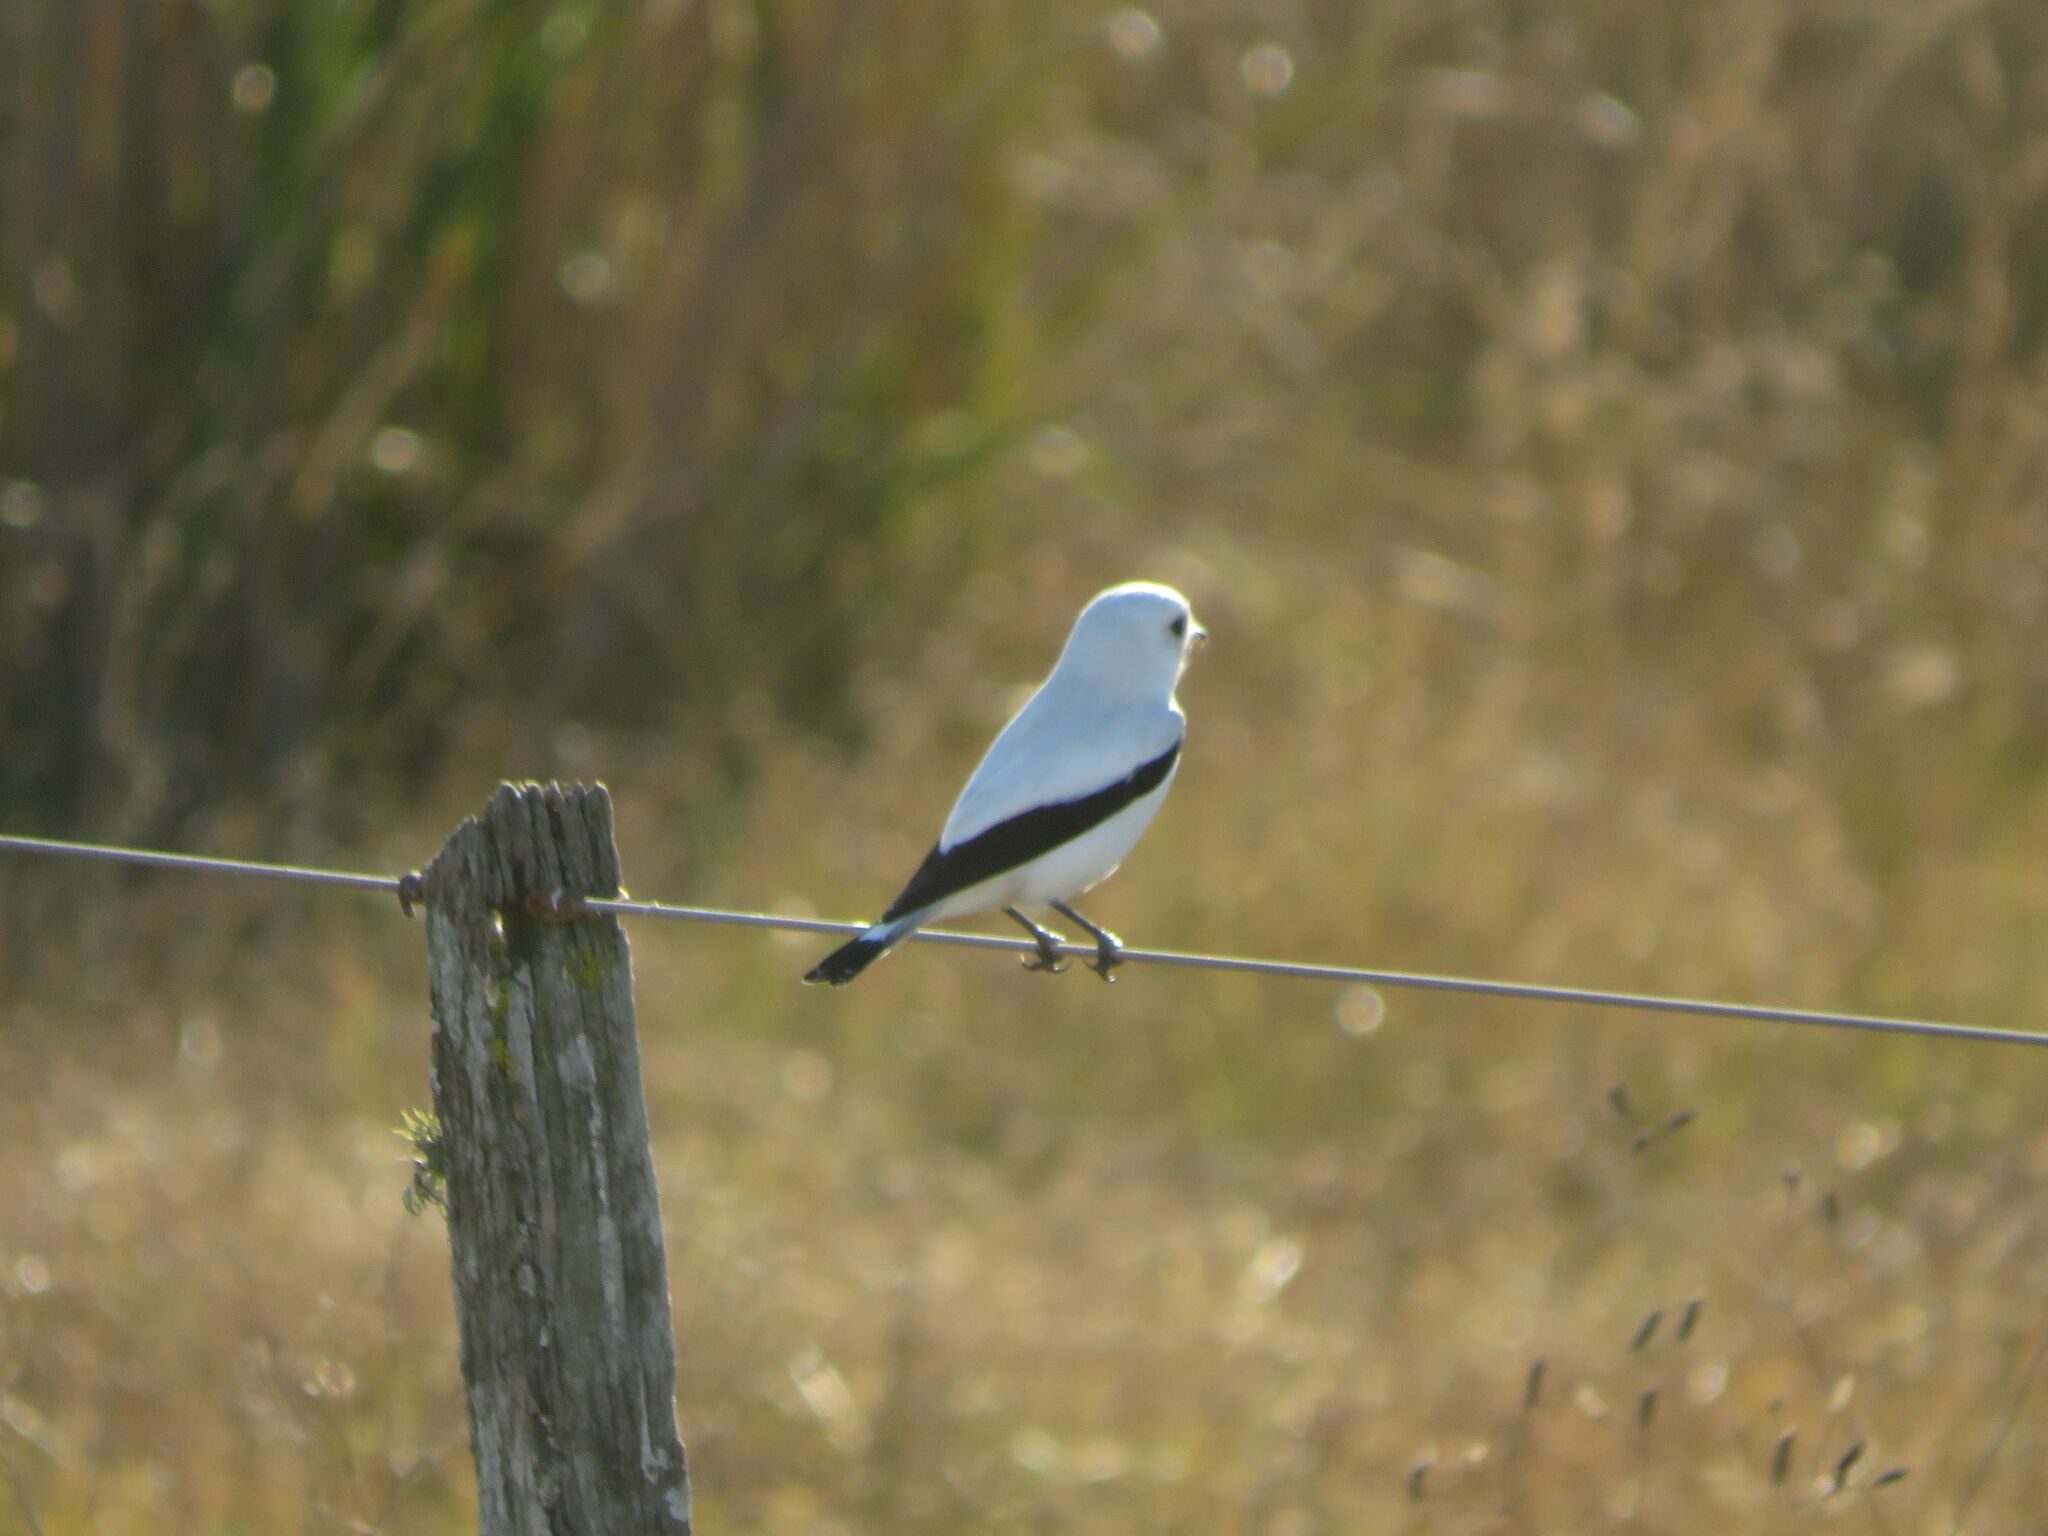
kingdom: Animalia
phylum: Chordata
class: Aves
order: Passeriformes
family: Tyrannidae
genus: Xolmis
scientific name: Xolmis irupero
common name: White monjita
